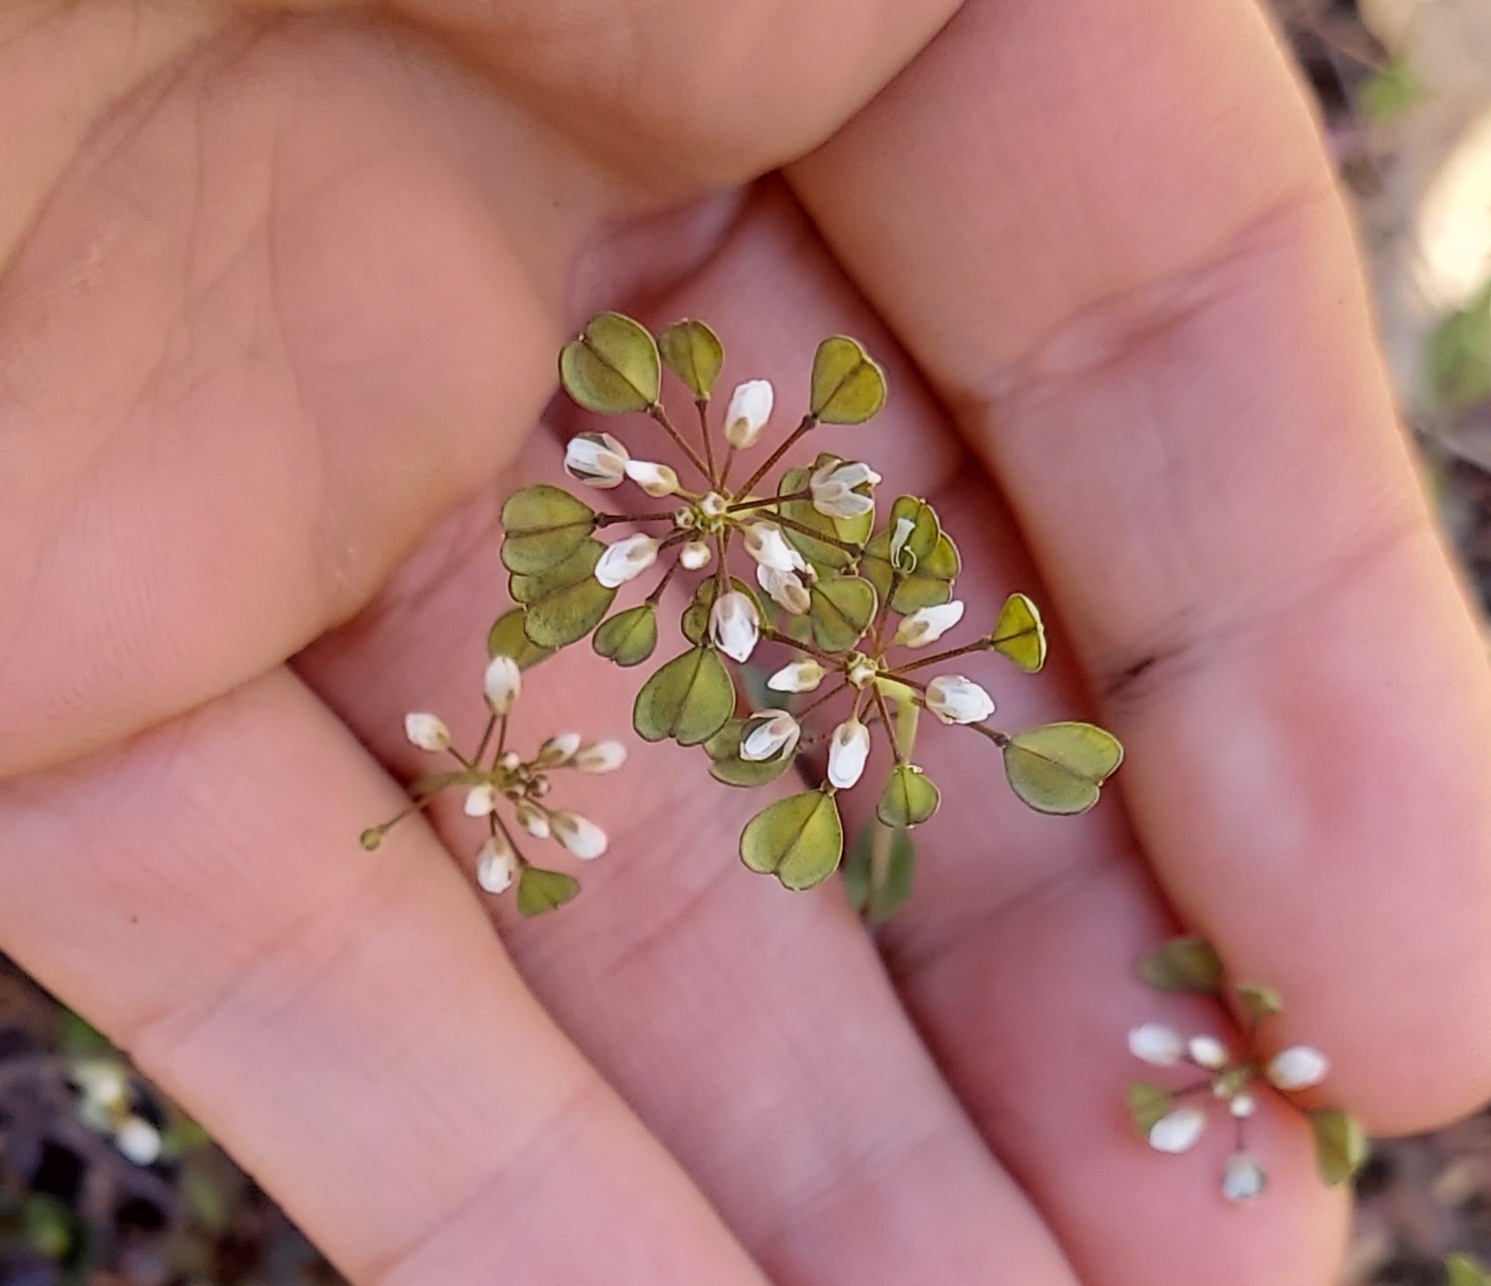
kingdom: Plantae
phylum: Tracheophyta
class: Magnoliopsida
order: Brassicales
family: Brassicaceae
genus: Noccaea
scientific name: Noccaea perfoliata
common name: Perfoliate pennycress
